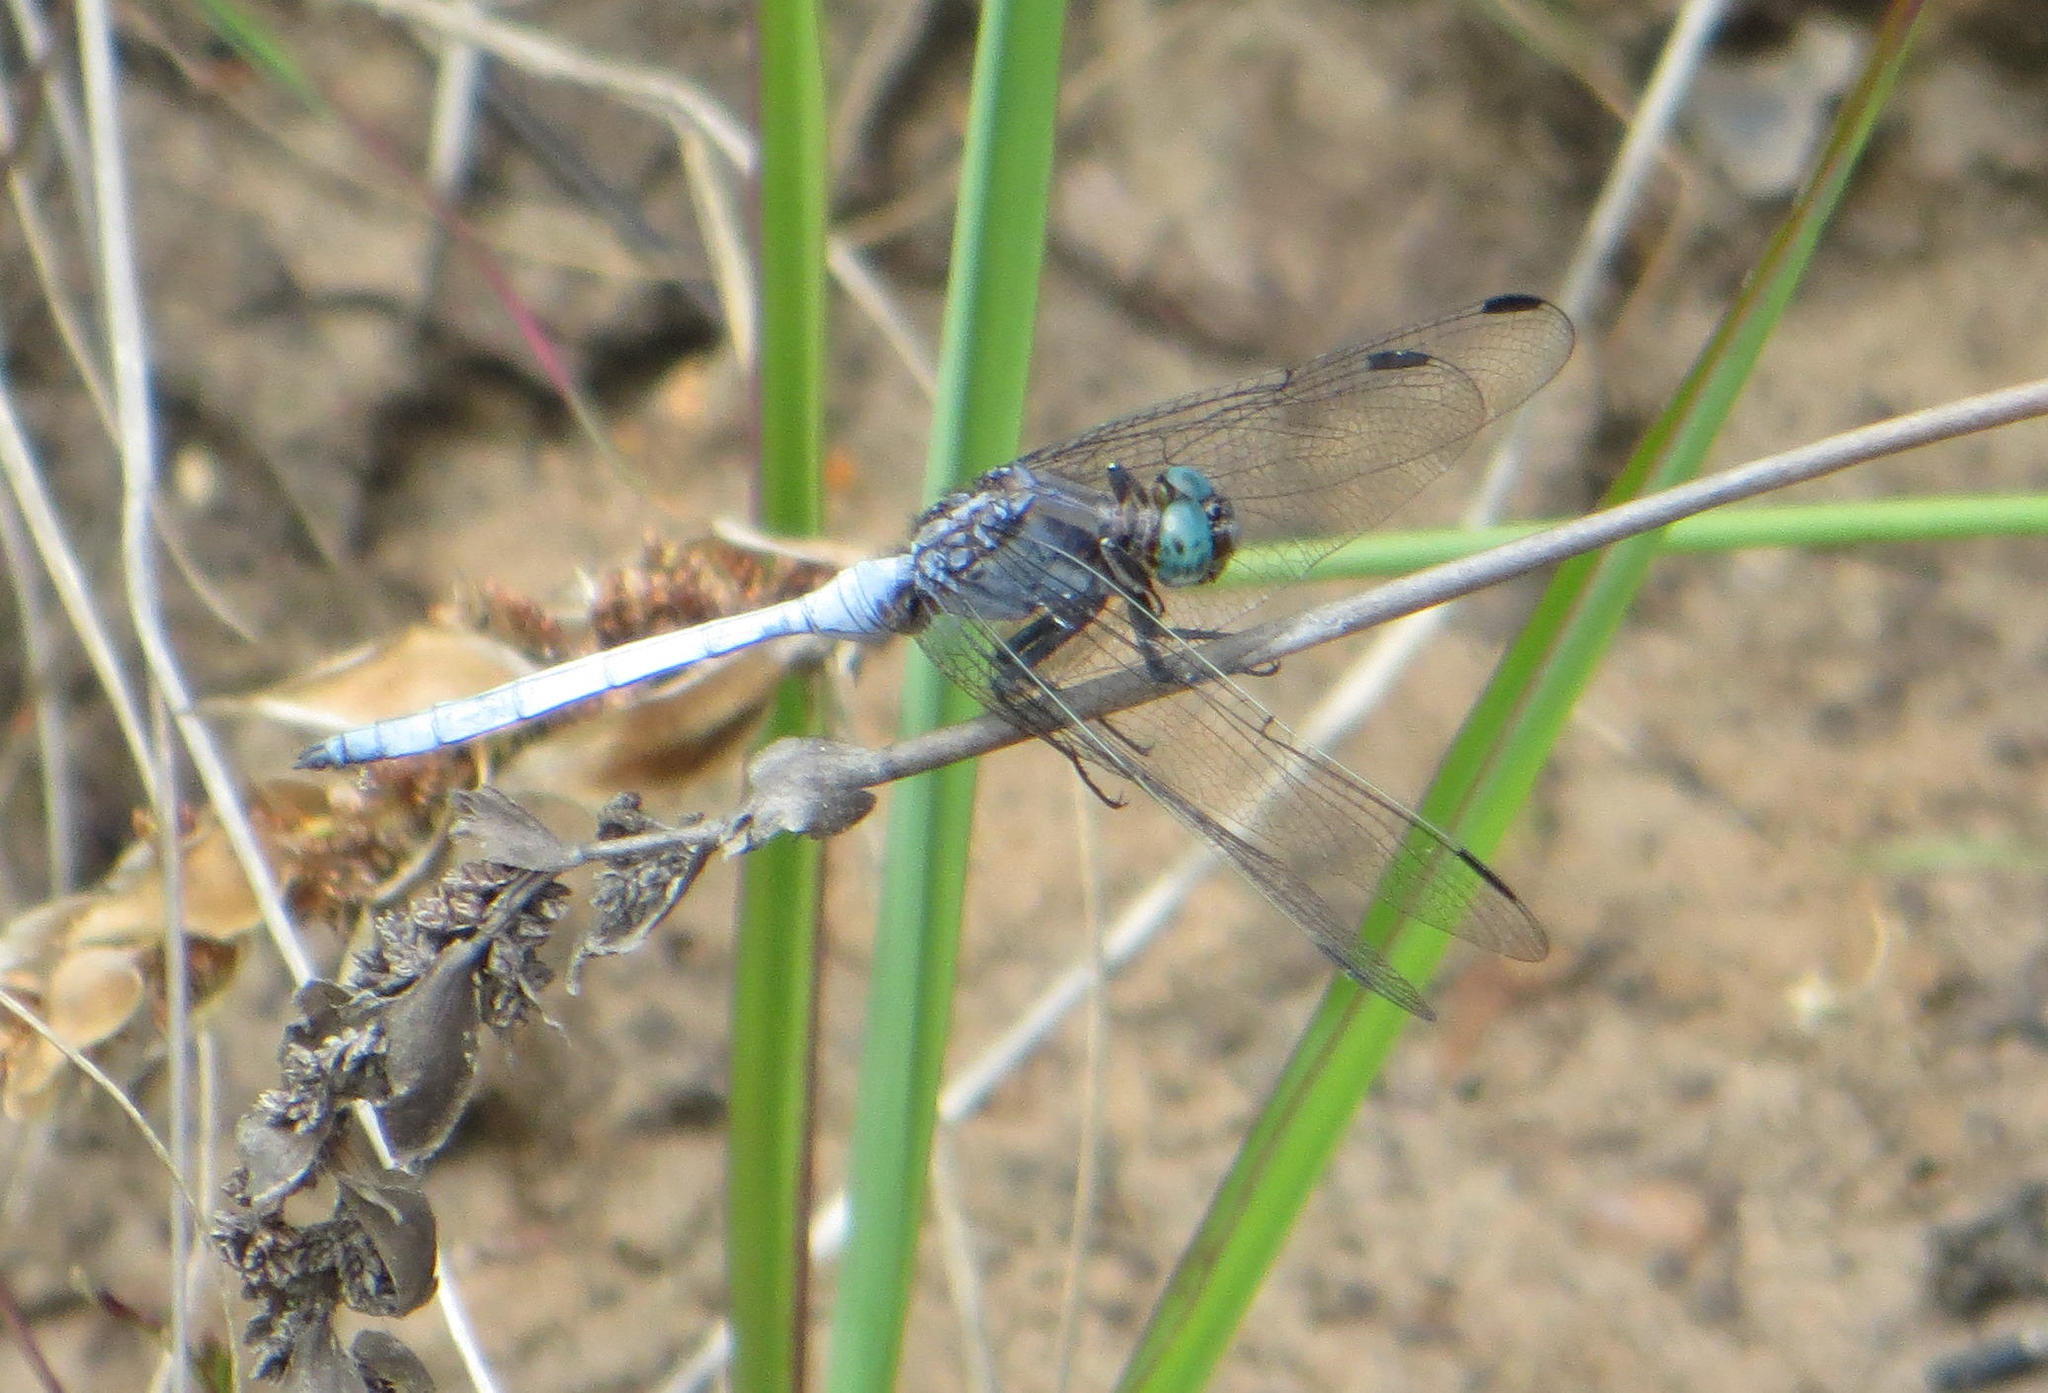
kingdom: Animalia
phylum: Arthropoda
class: Insecta
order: Odonata
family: Libellulidae
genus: Orthetrum
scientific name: Orthetrum julia
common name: Julia skimmer
